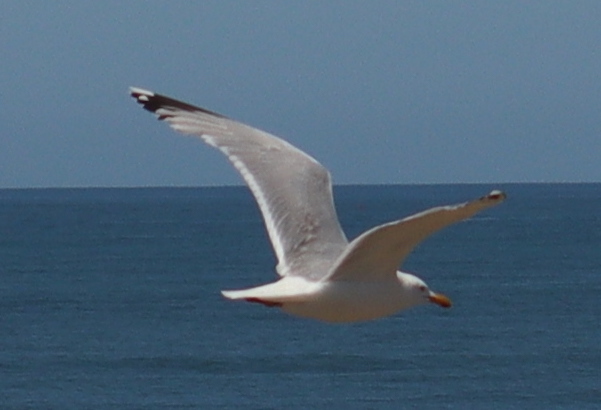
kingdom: Animalia
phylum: Chordata
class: Aves
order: Charadriiformes
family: Laridae
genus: Larus
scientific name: Larus argentatus
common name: Herring gull
